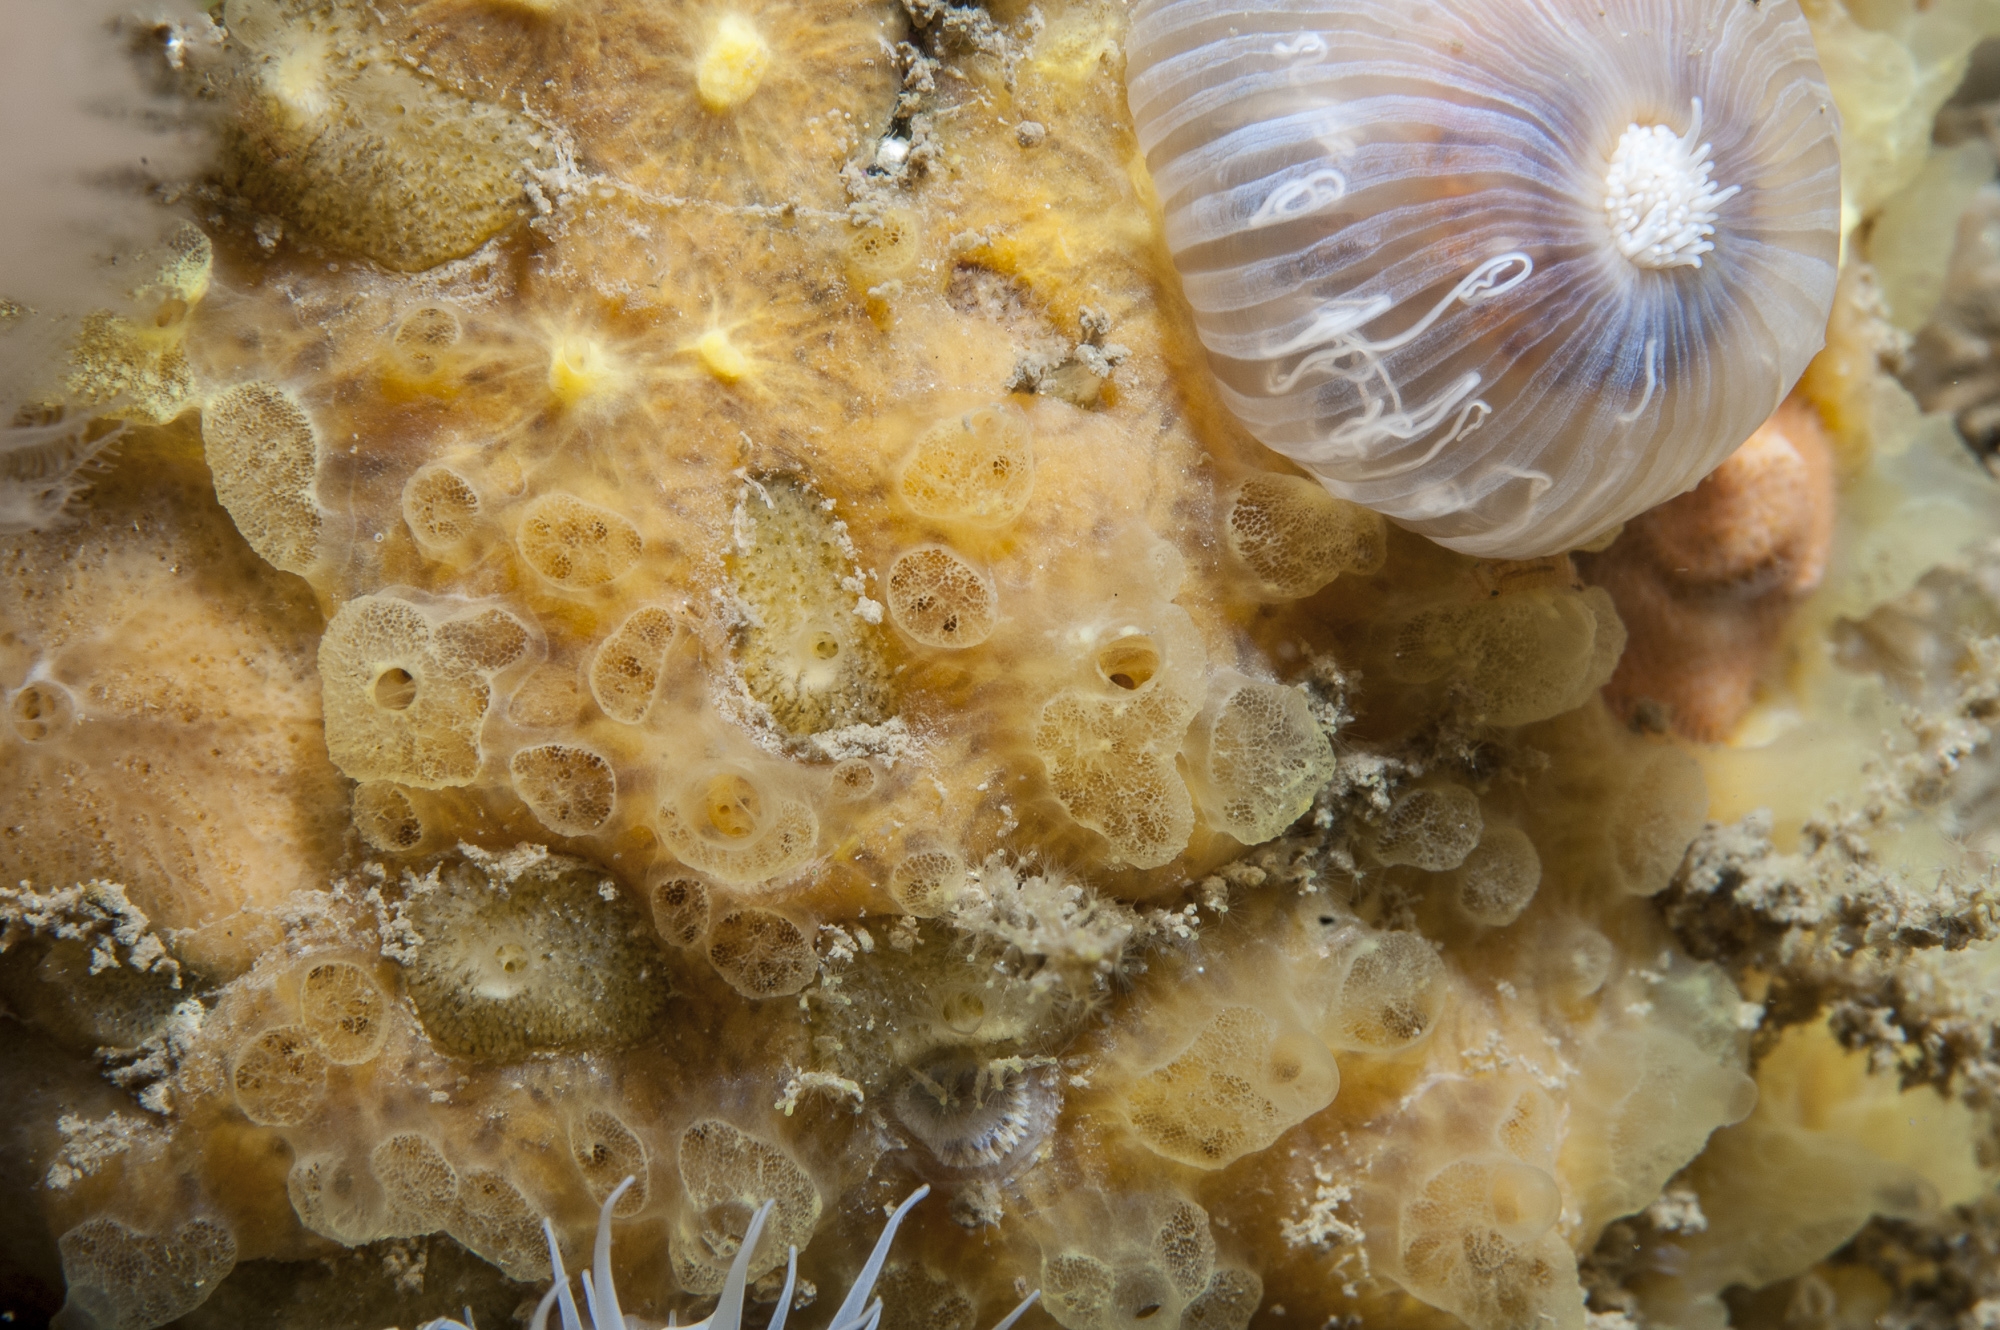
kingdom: Animalia
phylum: Porifera
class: Demospongiae
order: Poecilosclerida
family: Hymedesmiidae
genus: Hymedesmia
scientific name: Hymedesmia rathlinia
